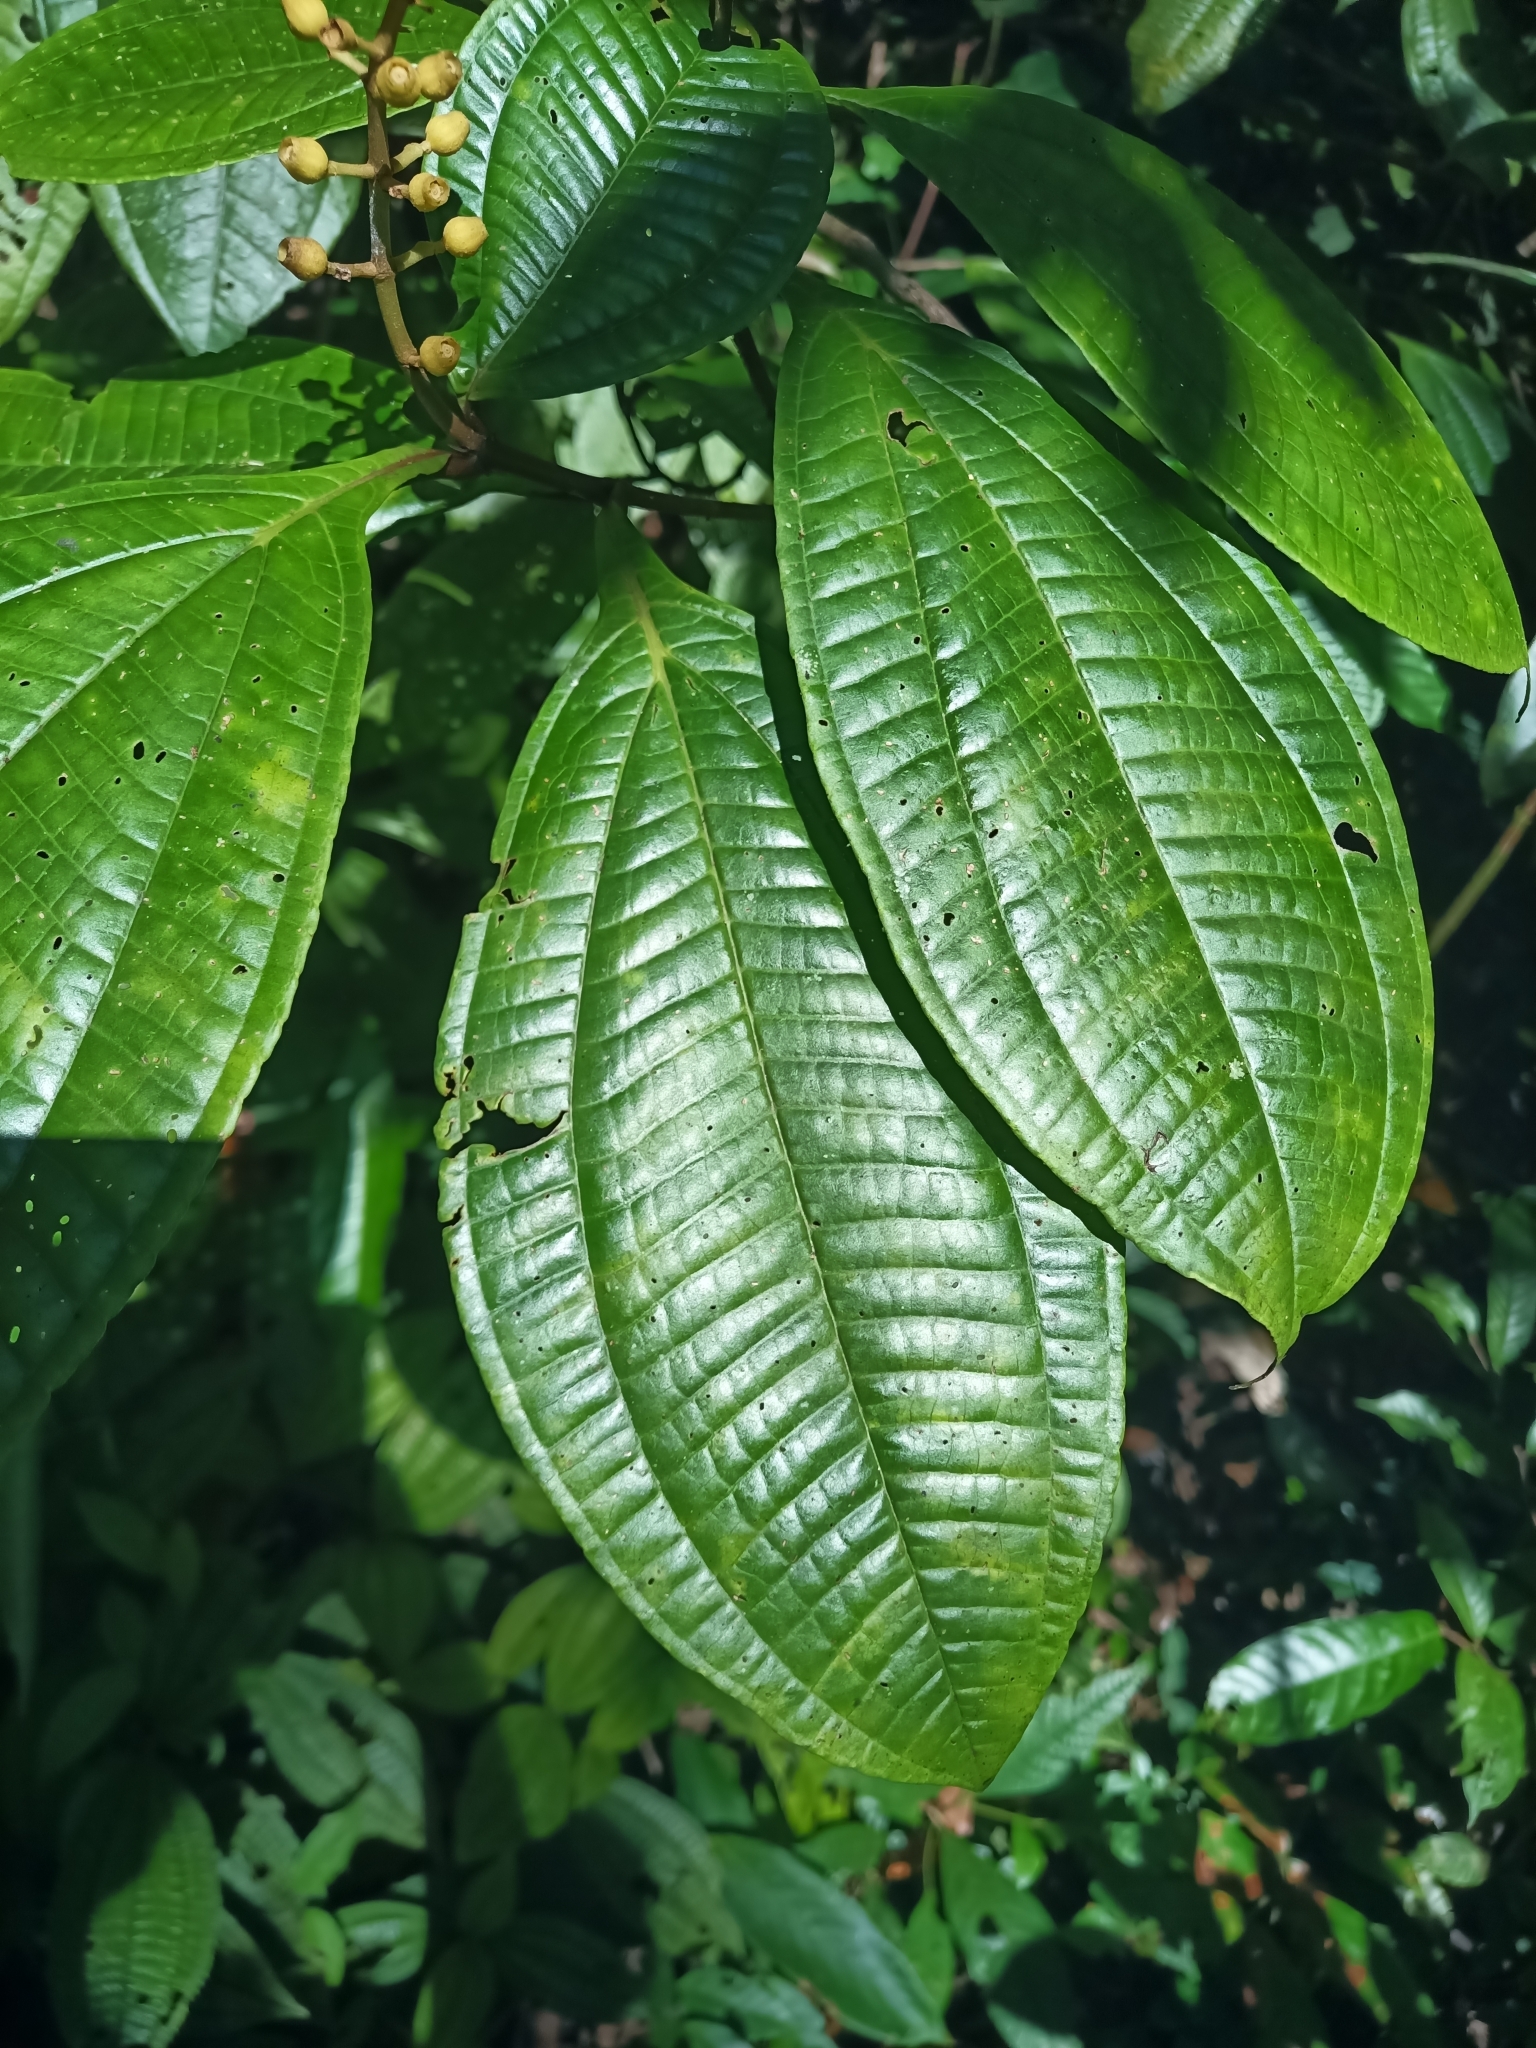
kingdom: Plantae
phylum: Tracheophyta
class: Magnoliopsida
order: Myrtales
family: Melastomataceae
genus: Miconia
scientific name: Miconia oldemanii
